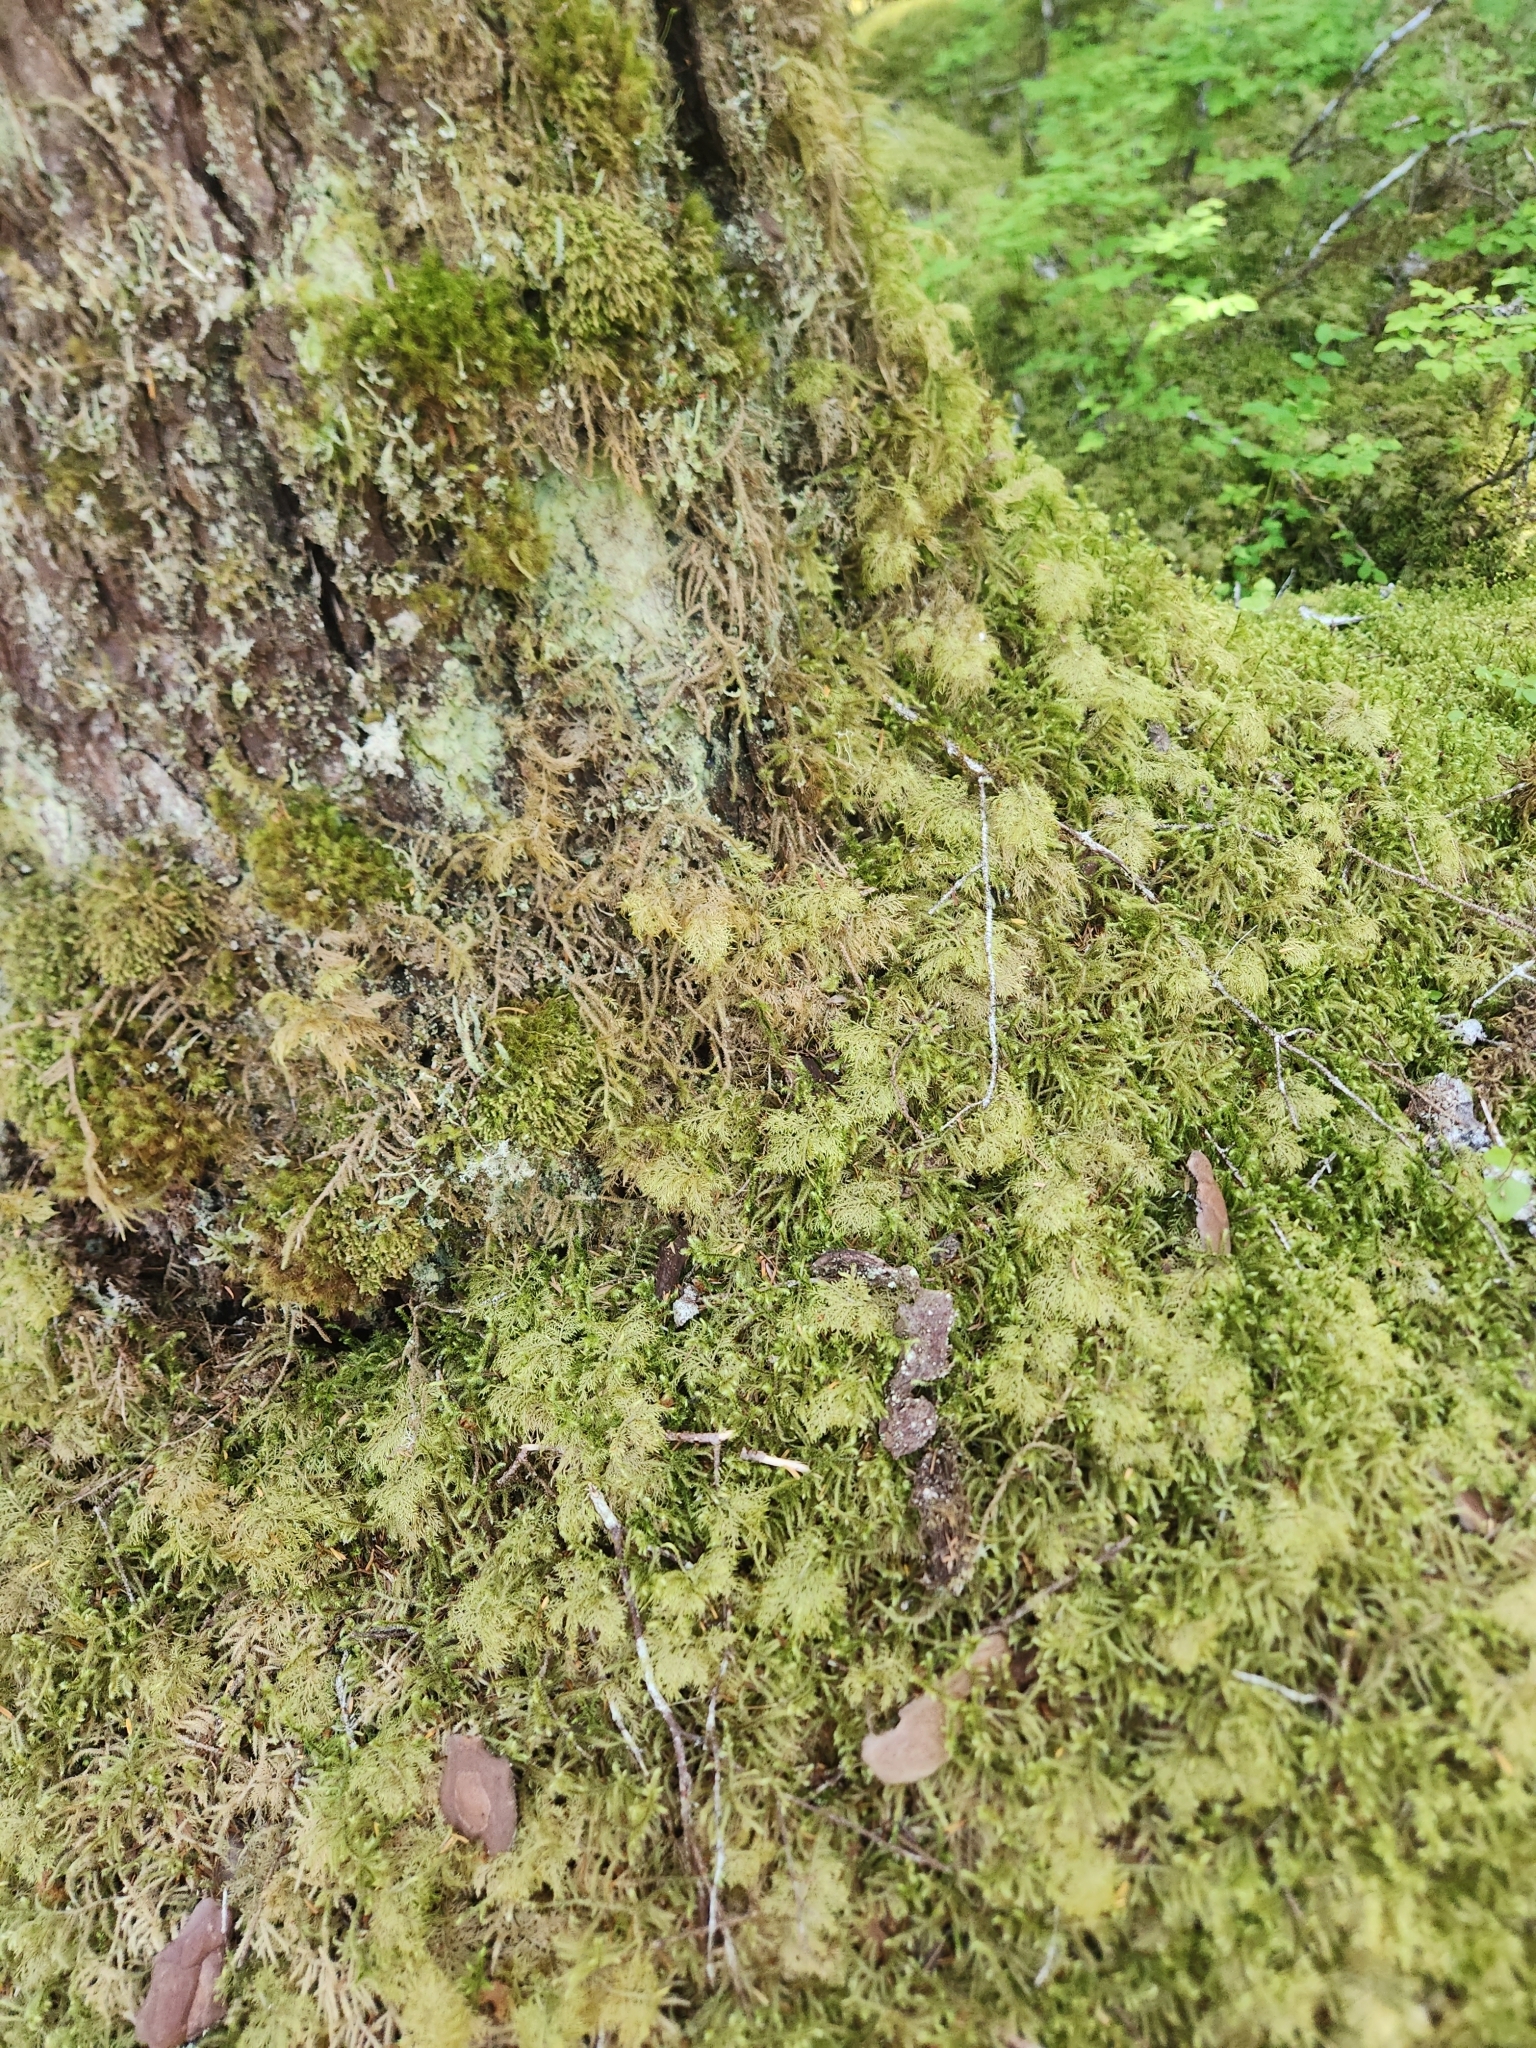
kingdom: Plantae
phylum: Bryophyta
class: Bryopsida
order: Hypnales
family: Hylocomiaceae
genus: Hylocomium
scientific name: Hylocomium splendens
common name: Stairstep moss
